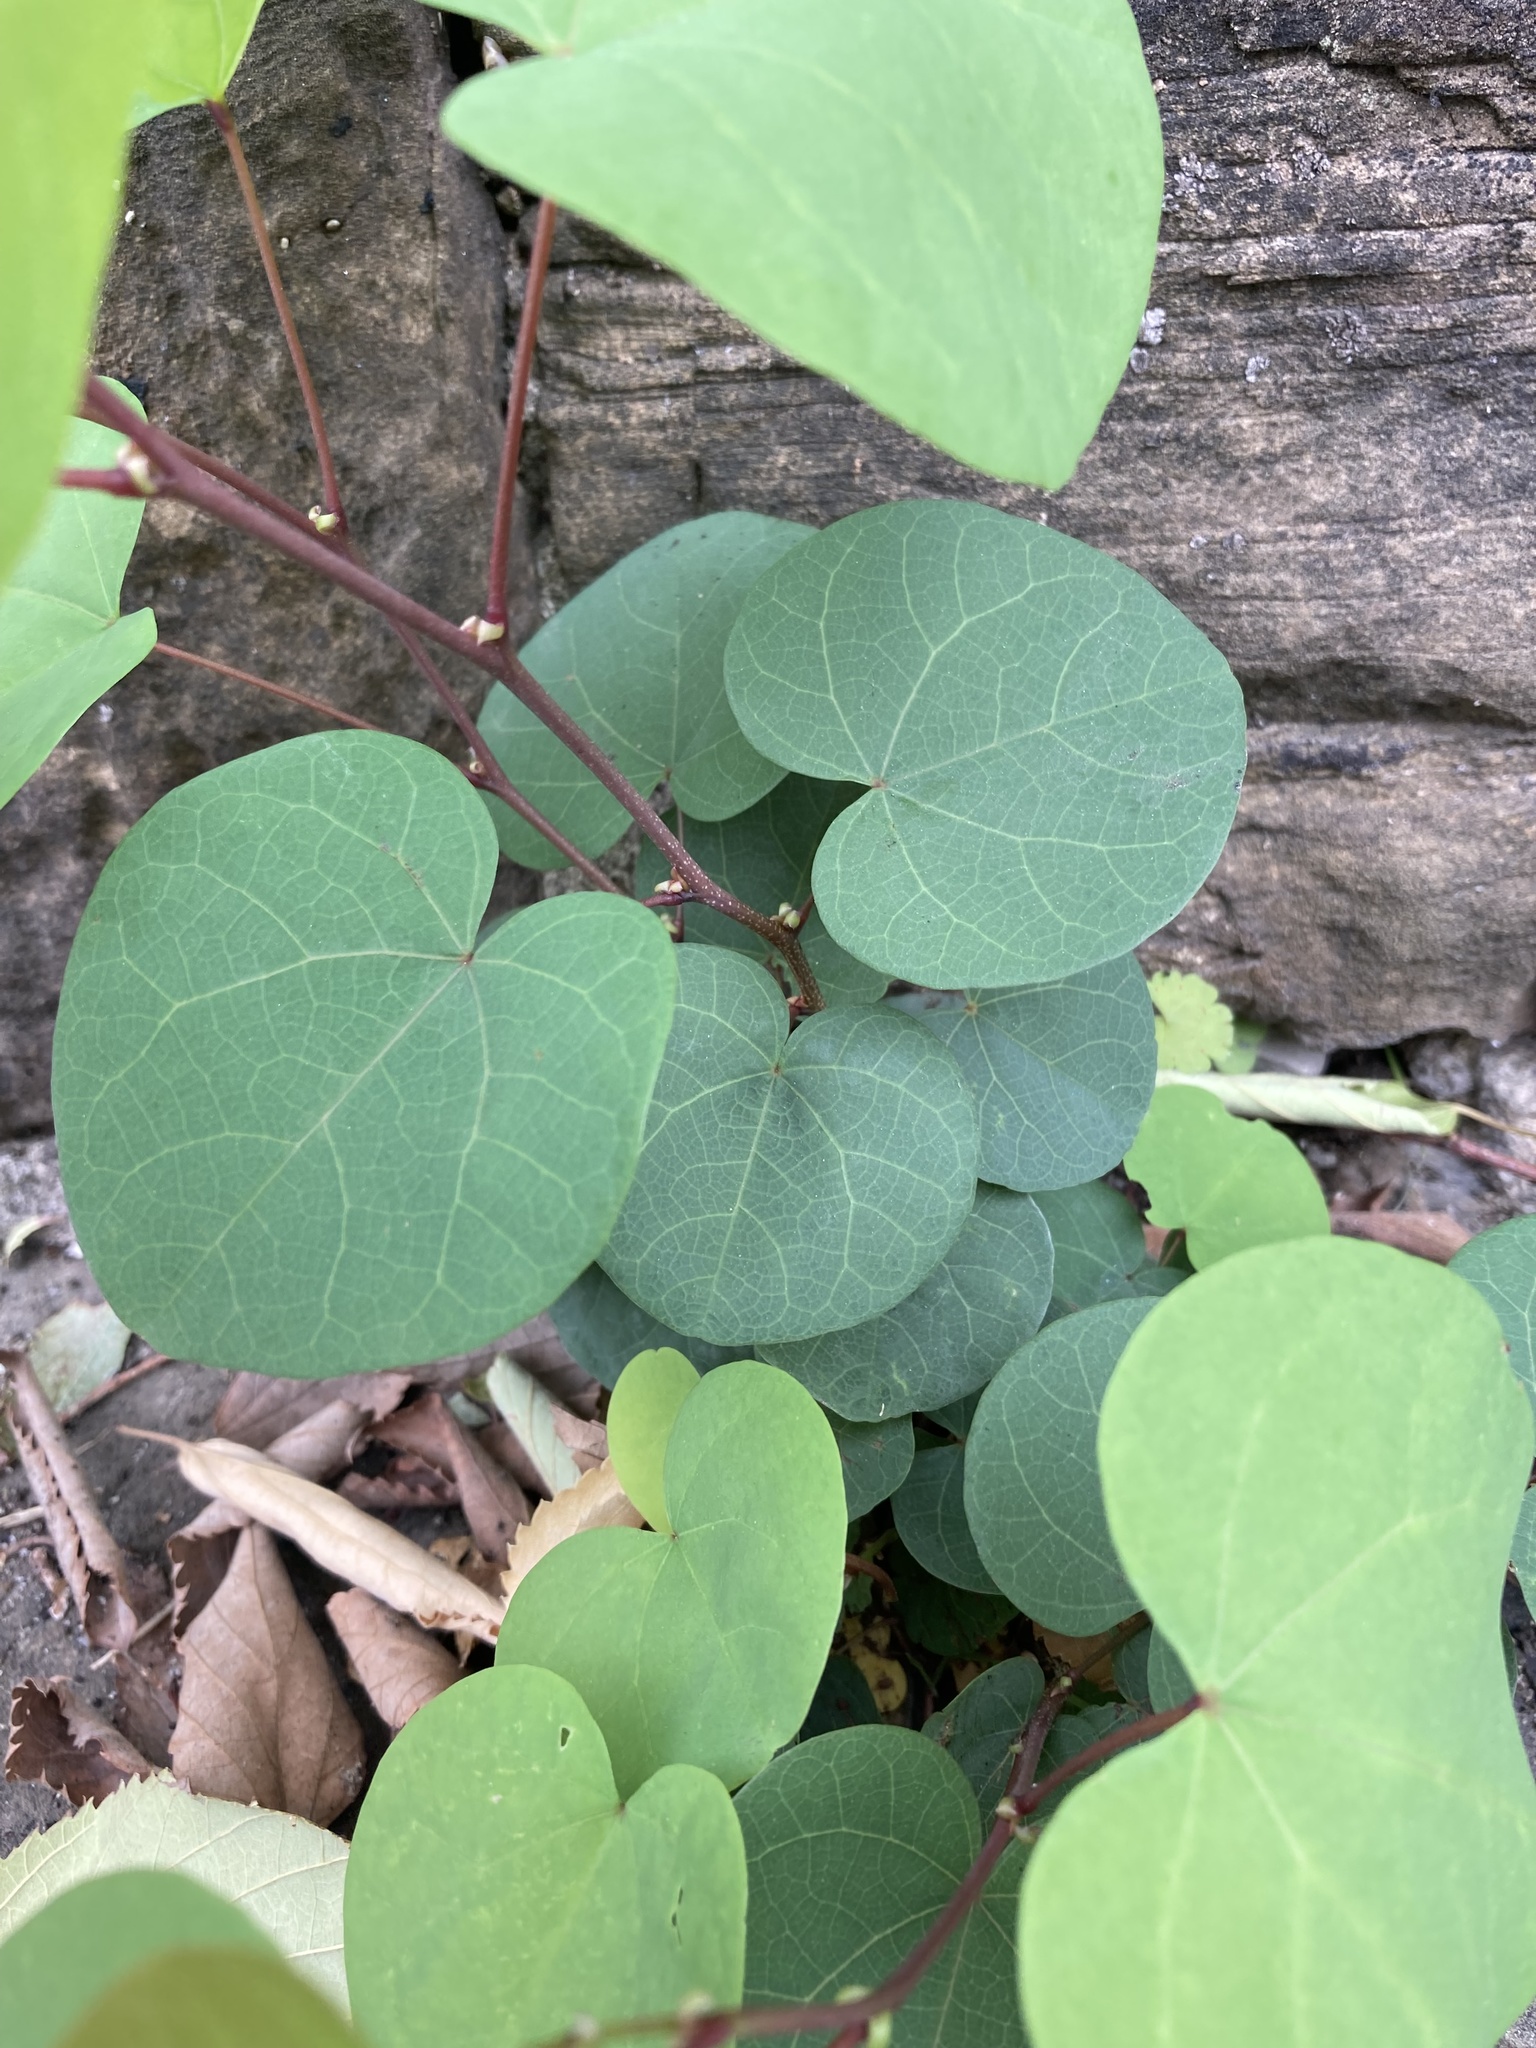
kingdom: Plantae
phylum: Tracheophyta
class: Magnoliopsida
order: Fabales
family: Fabaceae
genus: Cercis
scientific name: Cercis siliquastrum
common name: Judas tree
